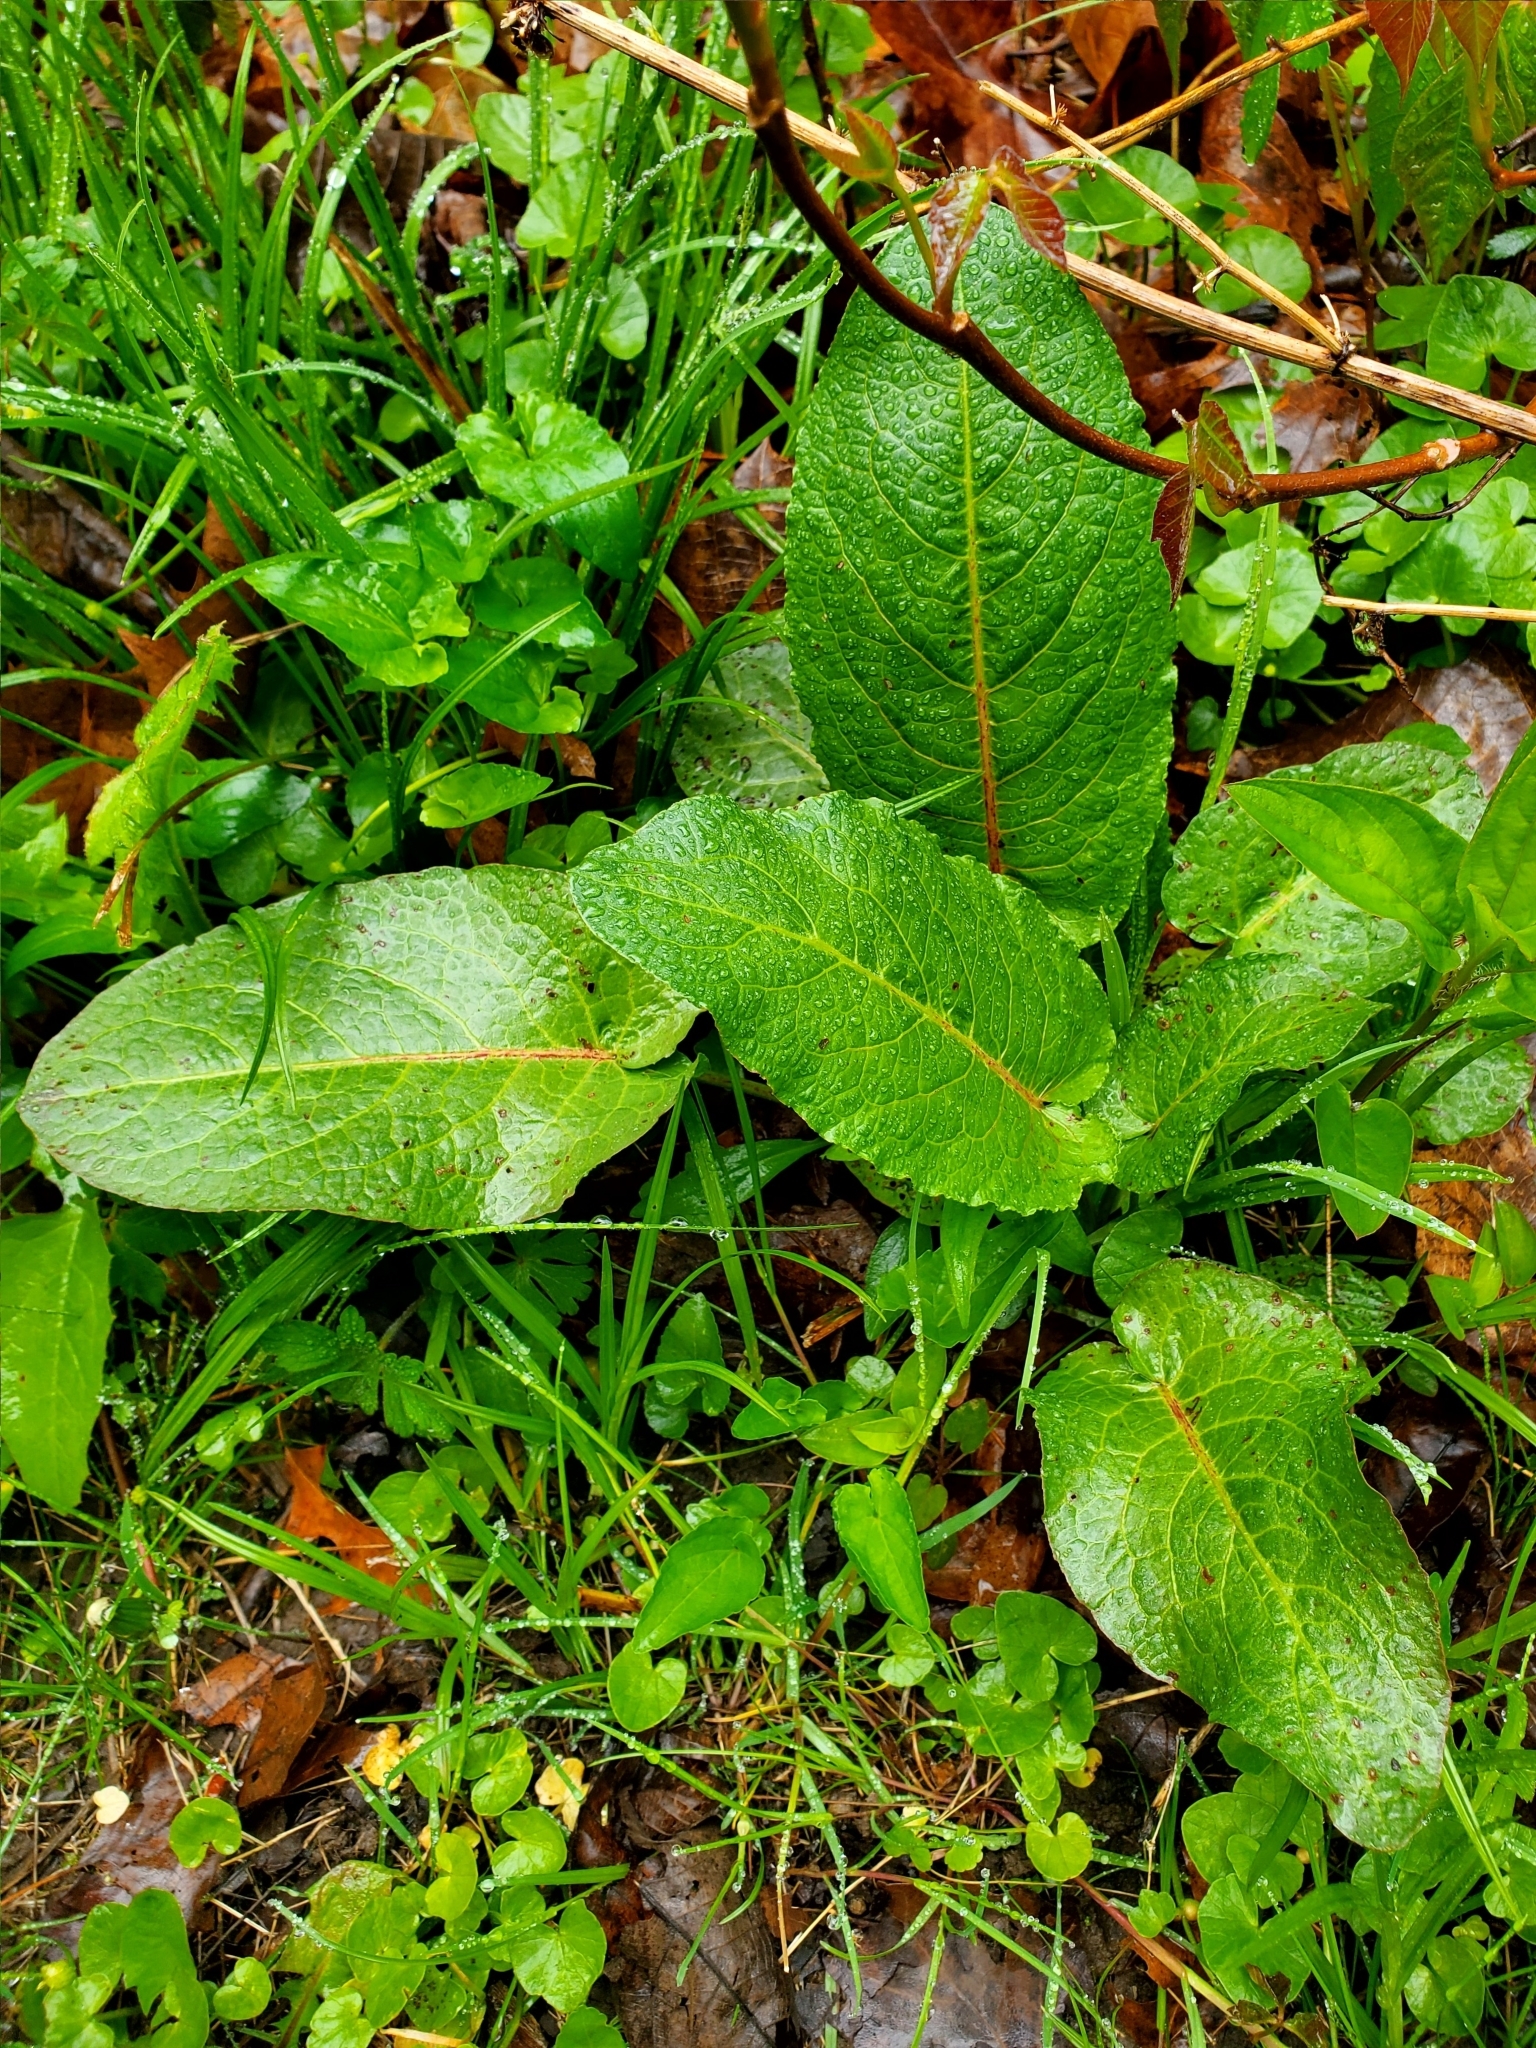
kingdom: Plantae
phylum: Tracheophyta
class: Magnoliopsida
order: Caryophyllales
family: Polygonaceae
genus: Rumex
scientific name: Rumex obtusifolius
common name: Bitter dock
